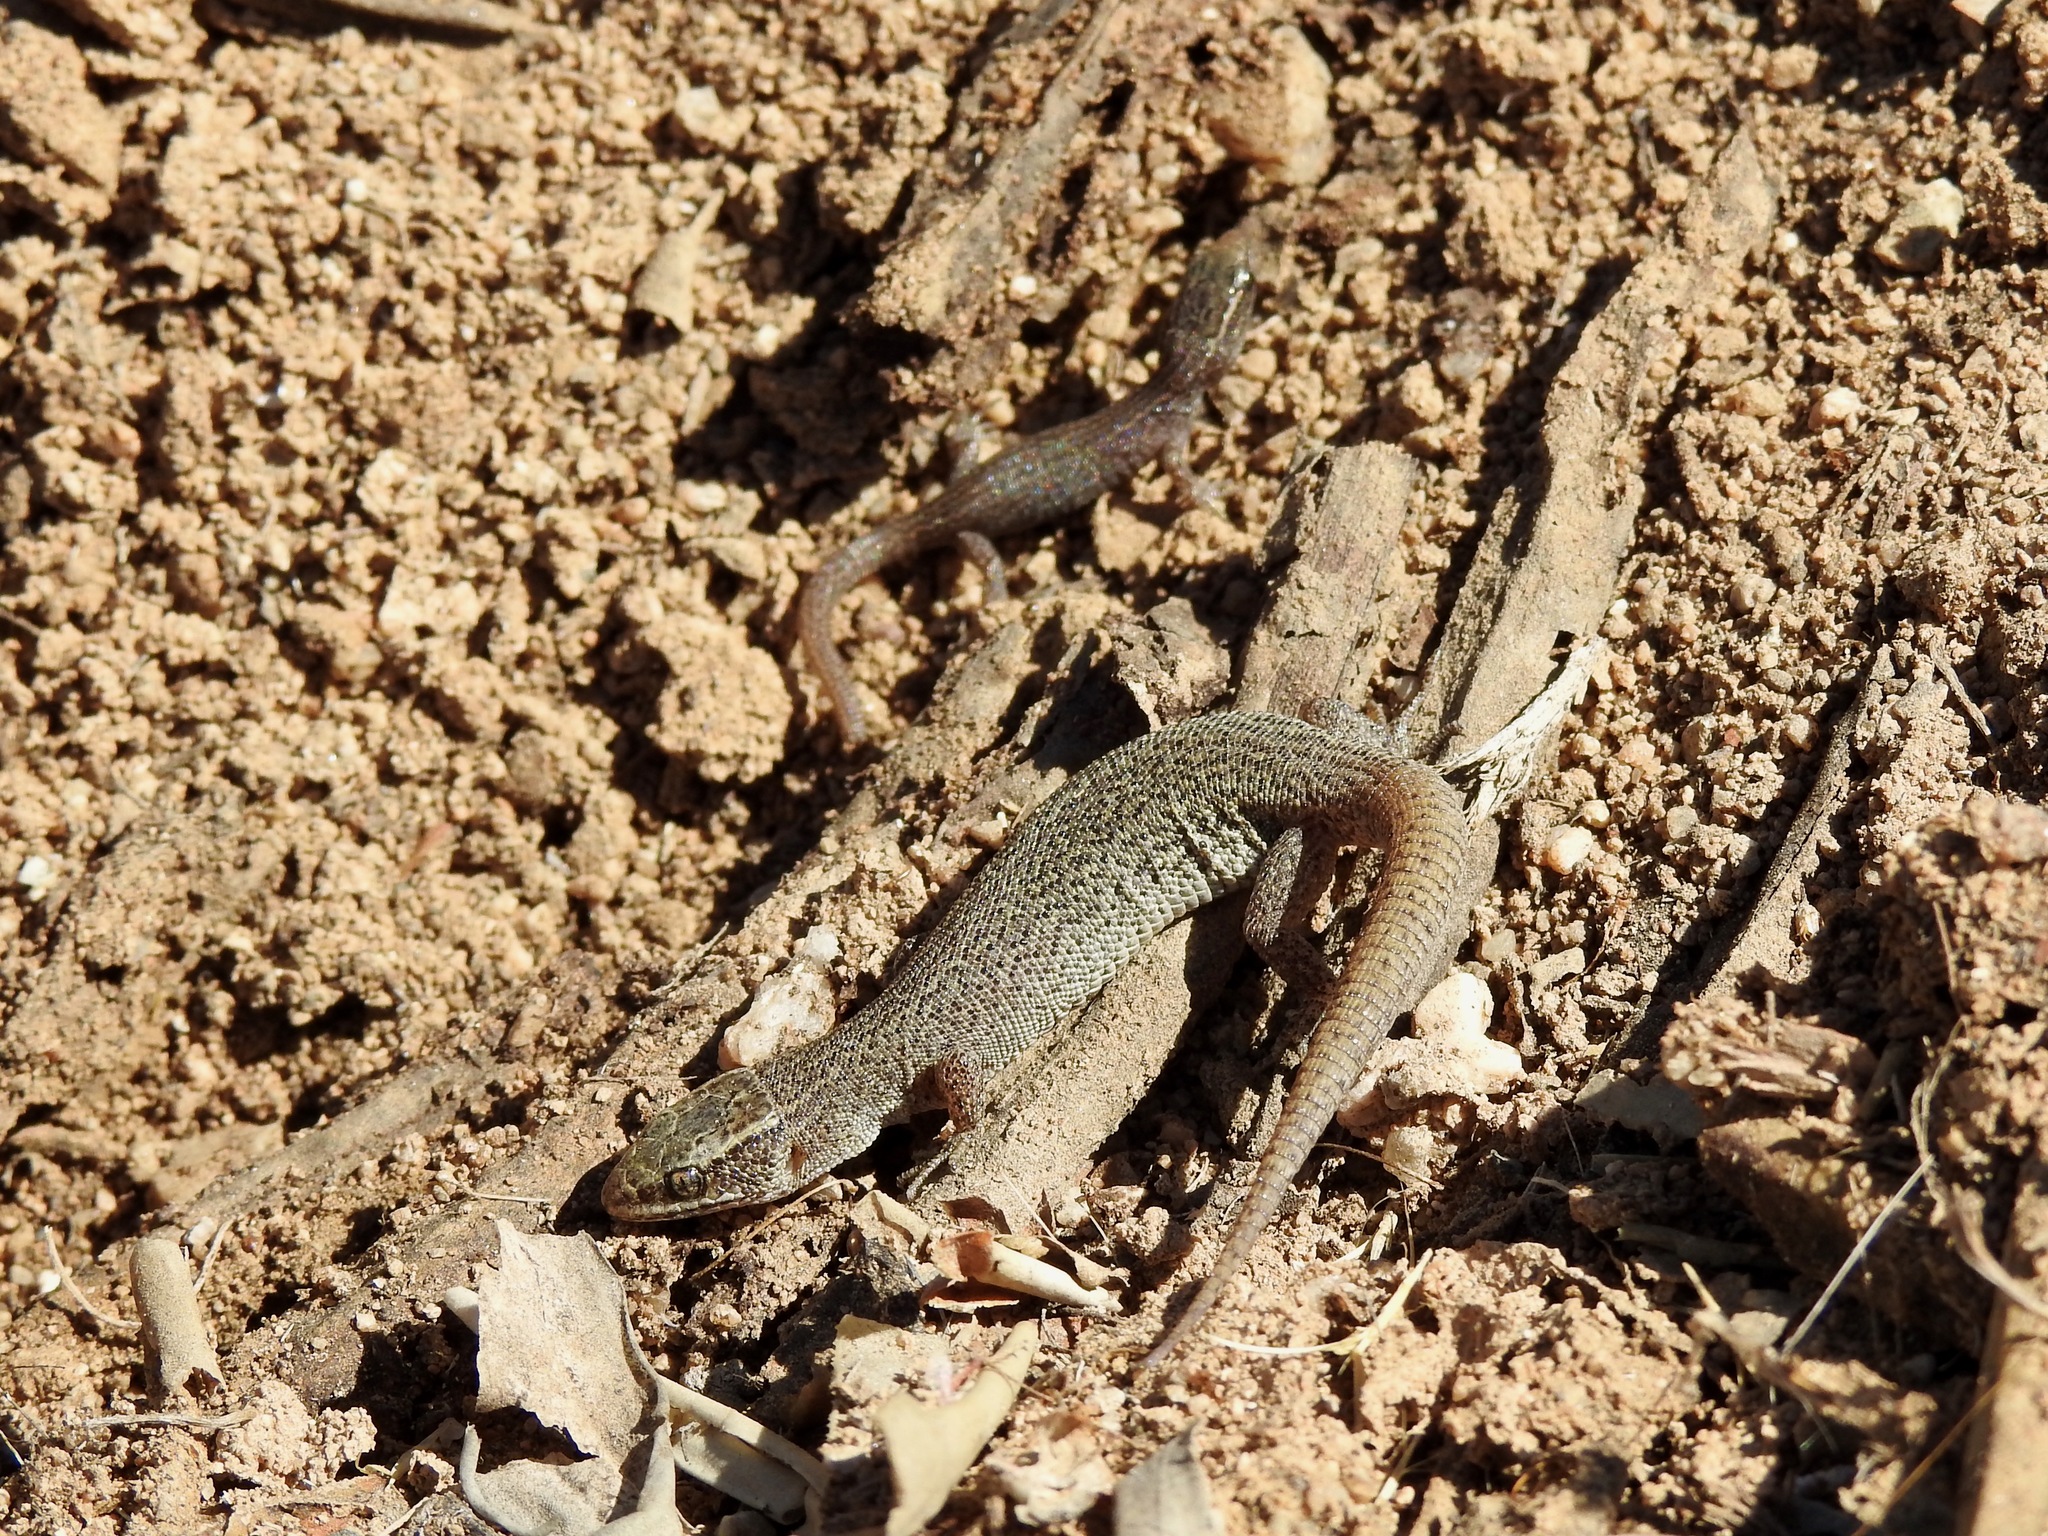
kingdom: Animalia
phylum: Chordata
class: Squamata
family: Xantusiidae
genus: Xantusia
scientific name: Xantusia vigilis
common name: Desert night lizard
